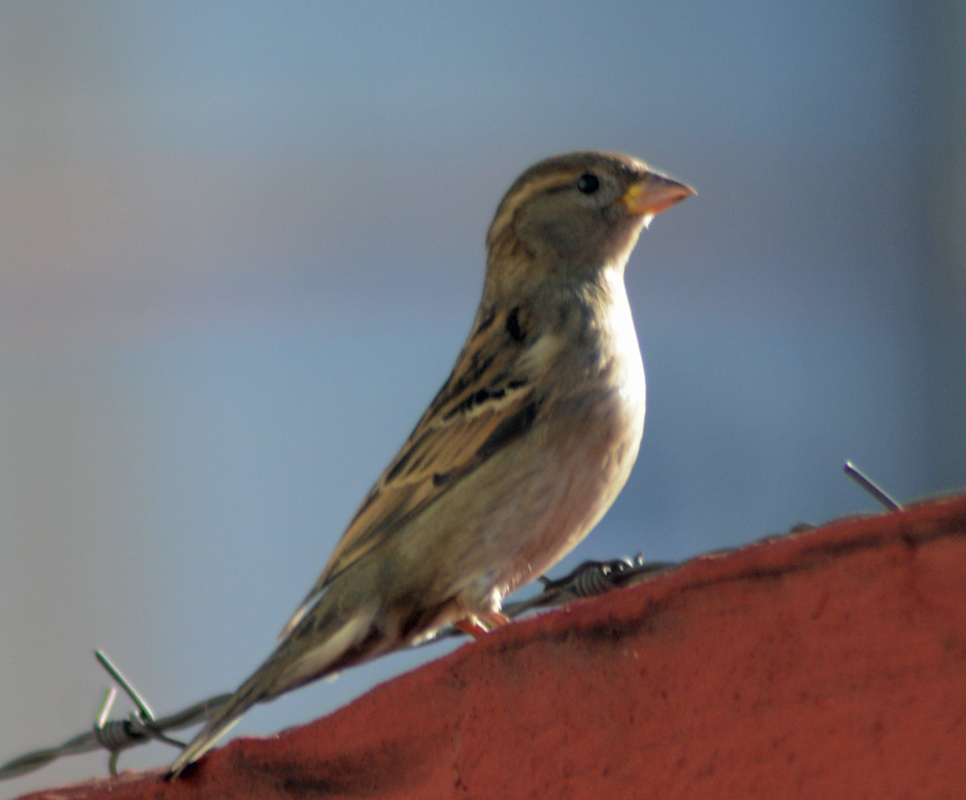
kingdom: Animalia
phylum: Chordata
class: Aves
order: Passeriformes
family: Passeridae
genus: Passer
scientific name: Passer domesticus
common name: House sparrow
